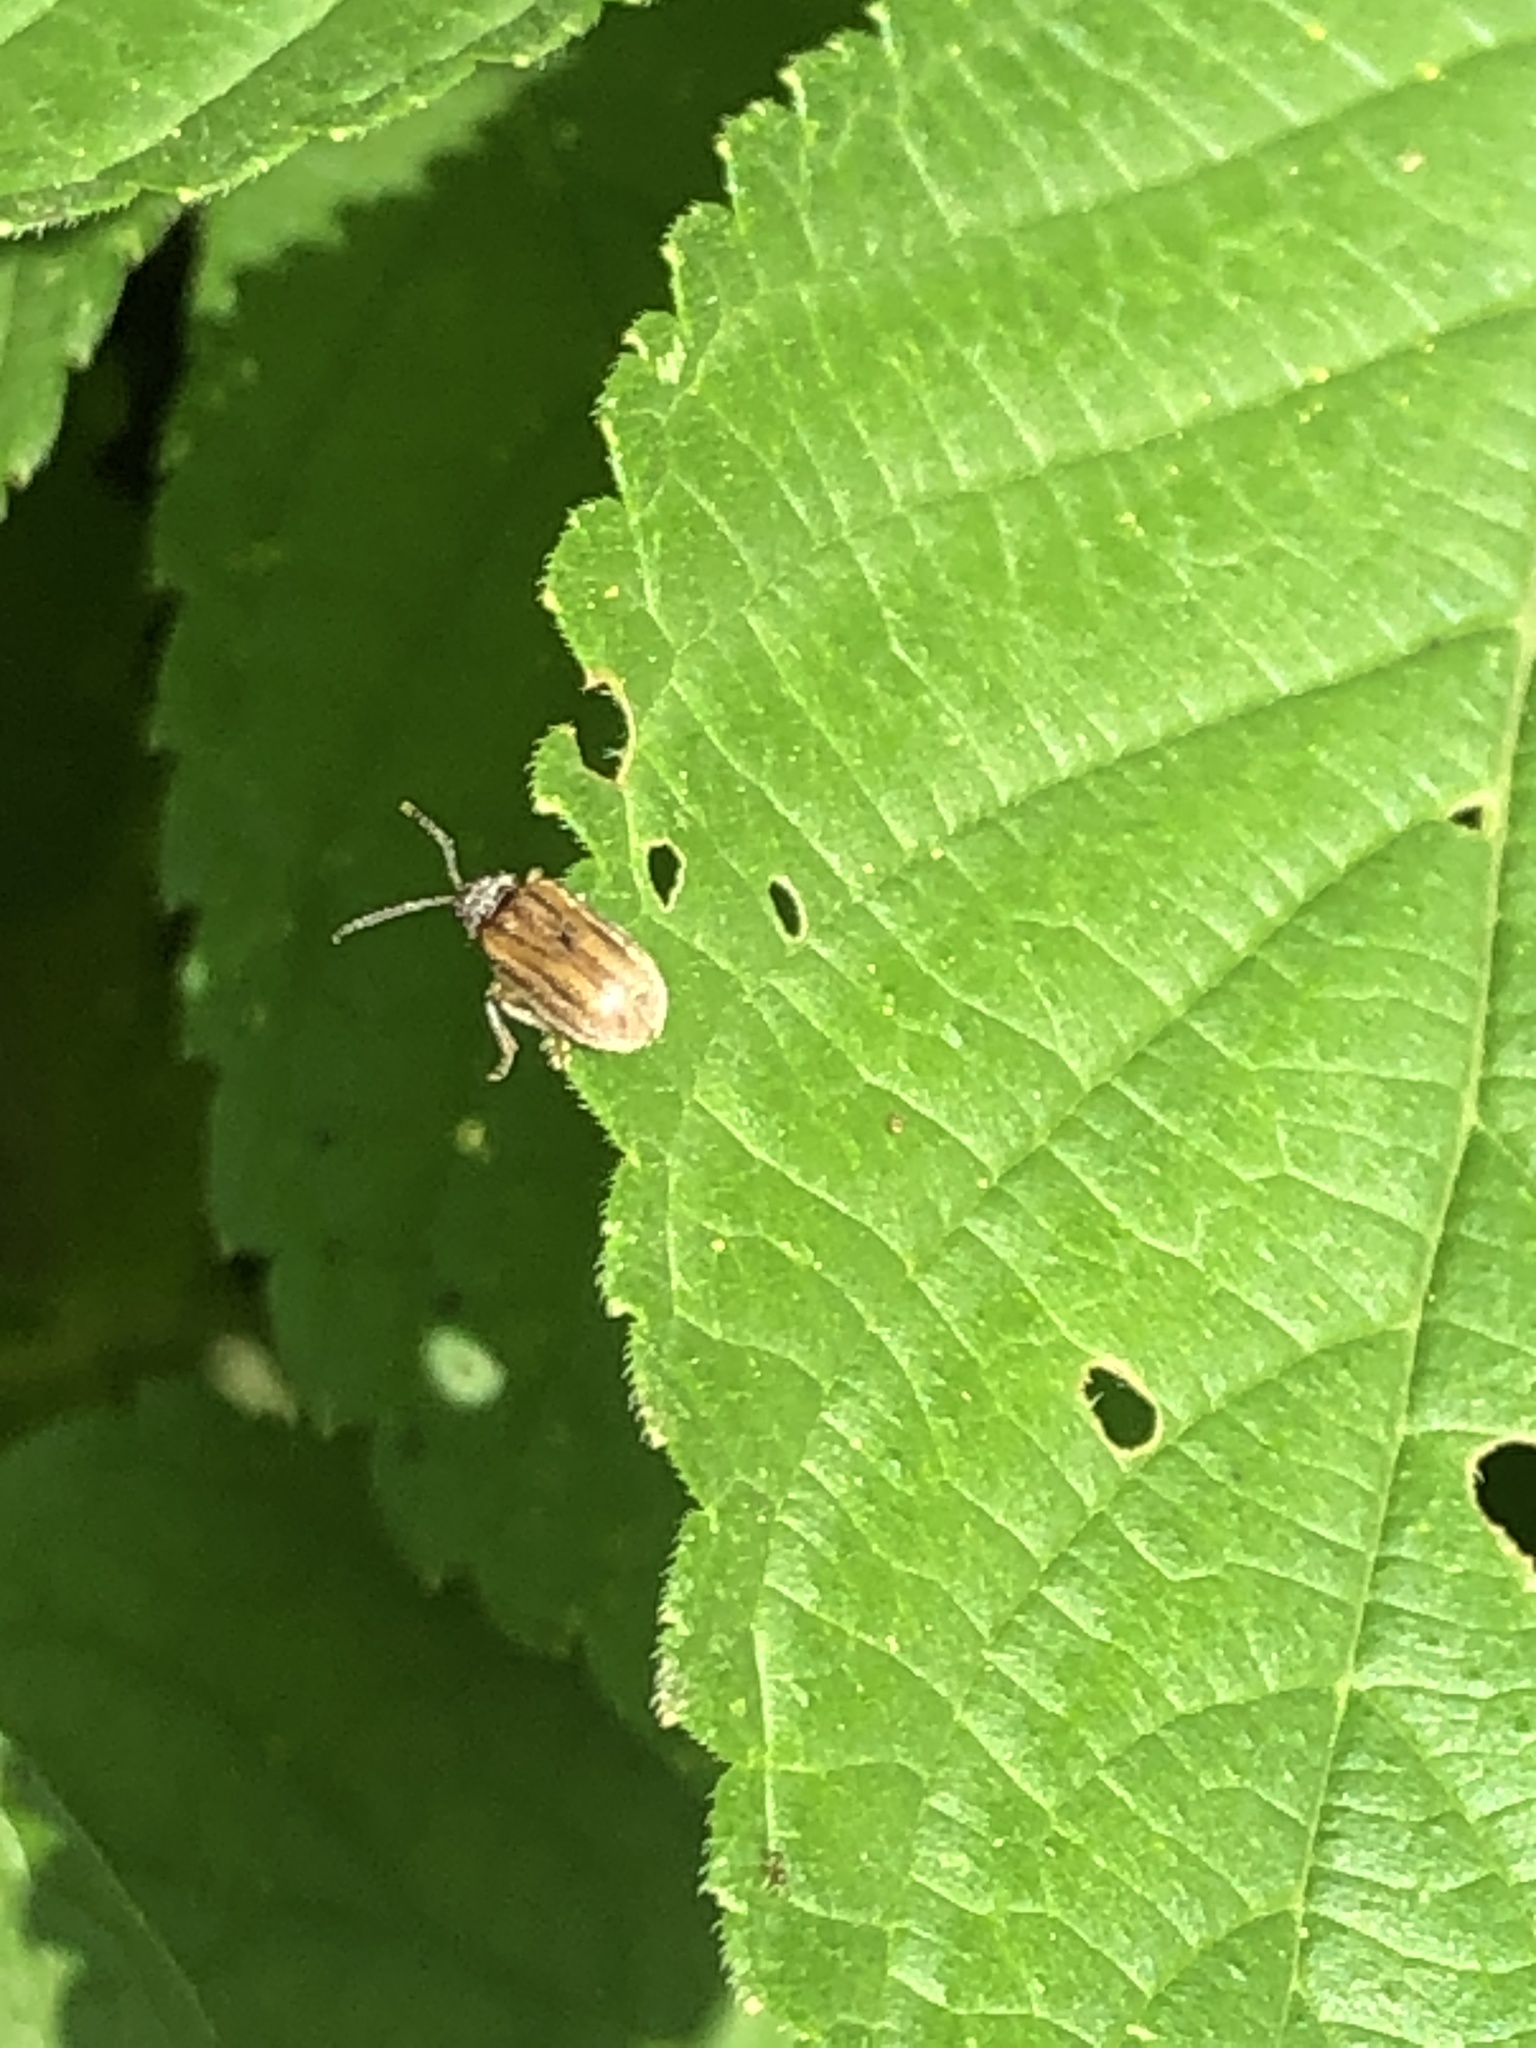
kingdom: Animalia
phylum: Arthropoda
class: Insecta
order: Coleoptera
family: Chrysomelidae
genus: Ophraella
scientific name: Ophraella communa
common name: Ragweed leaf beetle
